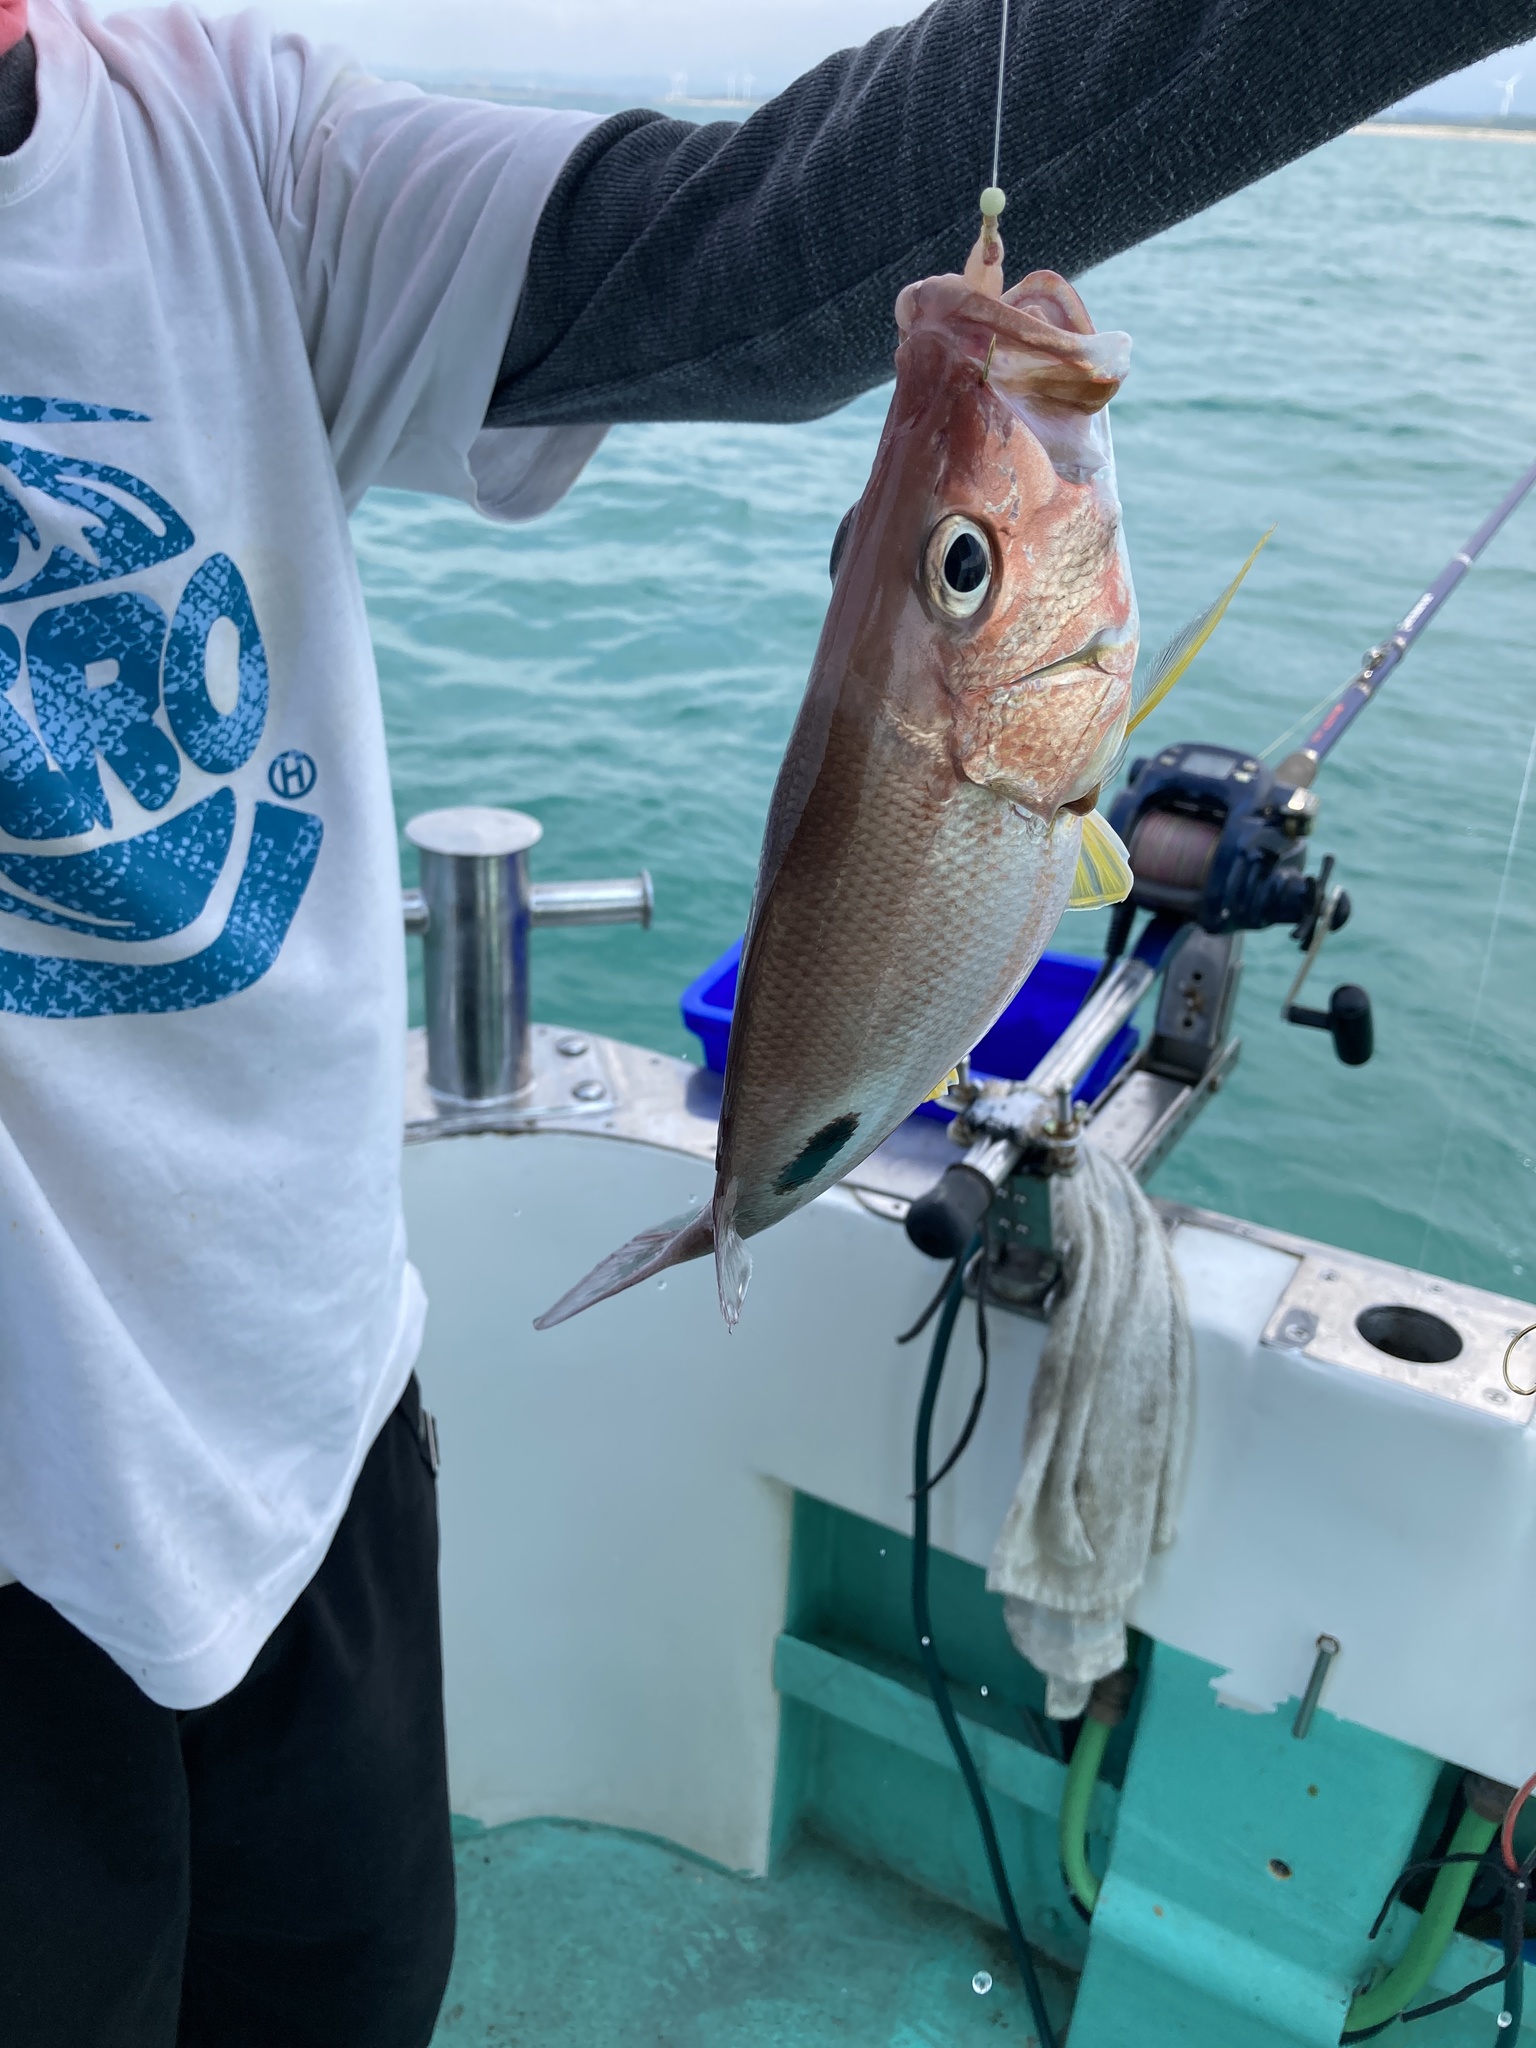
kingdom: Animalia
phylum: Chordata
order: Perciformes
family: Lutjanidae
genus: Lutjanus
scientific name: Lutjanus russellii
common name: Russell's snapper
